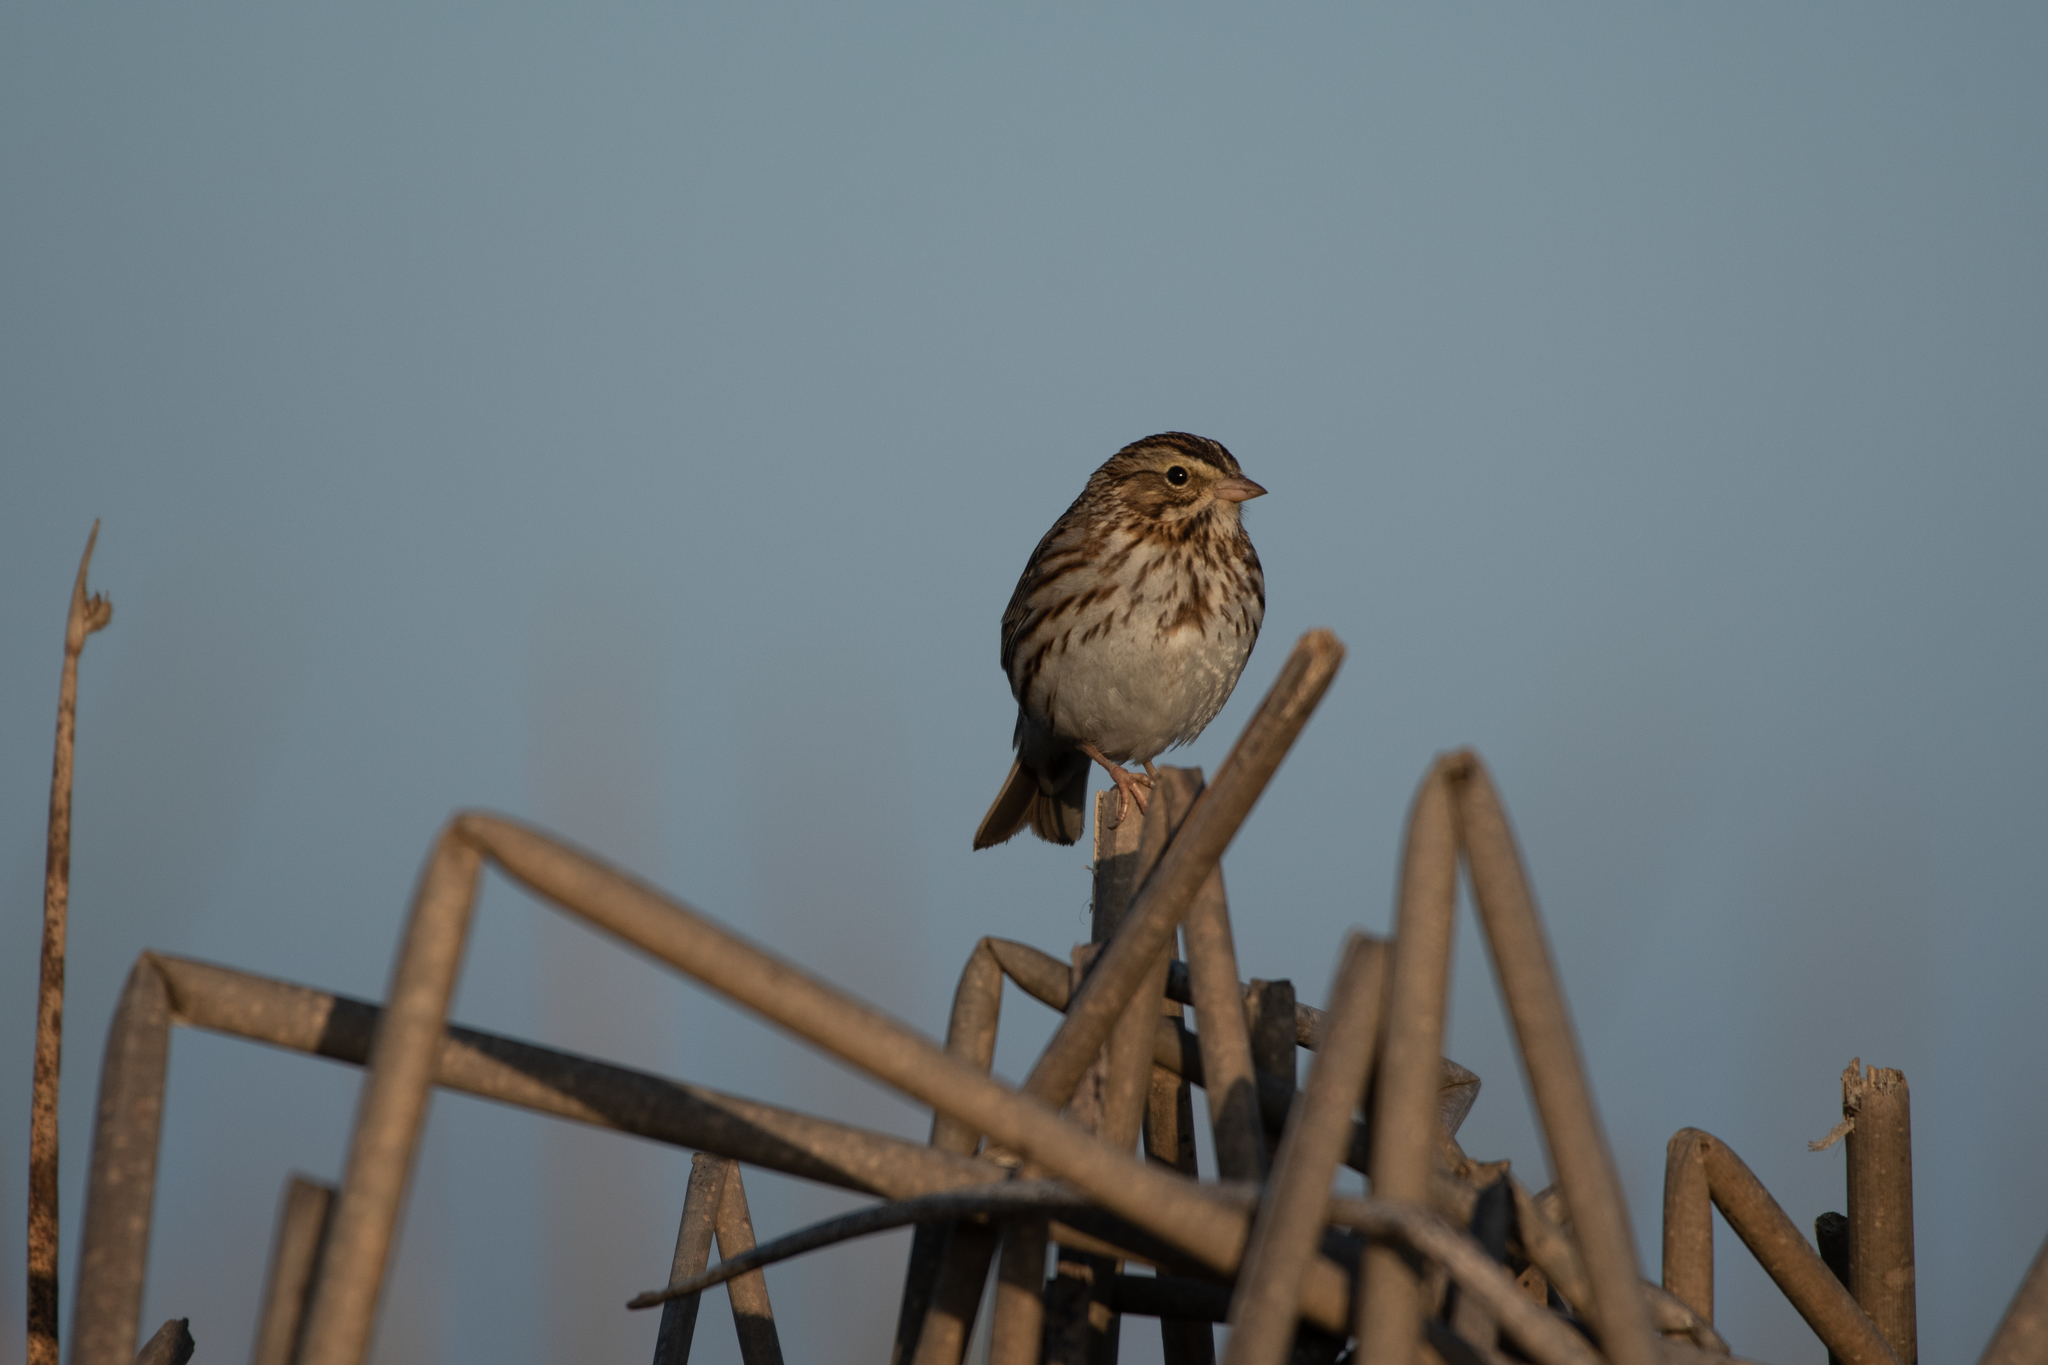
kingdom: Animalia
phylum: Chordata
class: Aves
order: Passeriformes
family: Passerellidae
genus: Passerculus
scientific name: Passerculus sandwichensis
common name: Savannah sparrow
